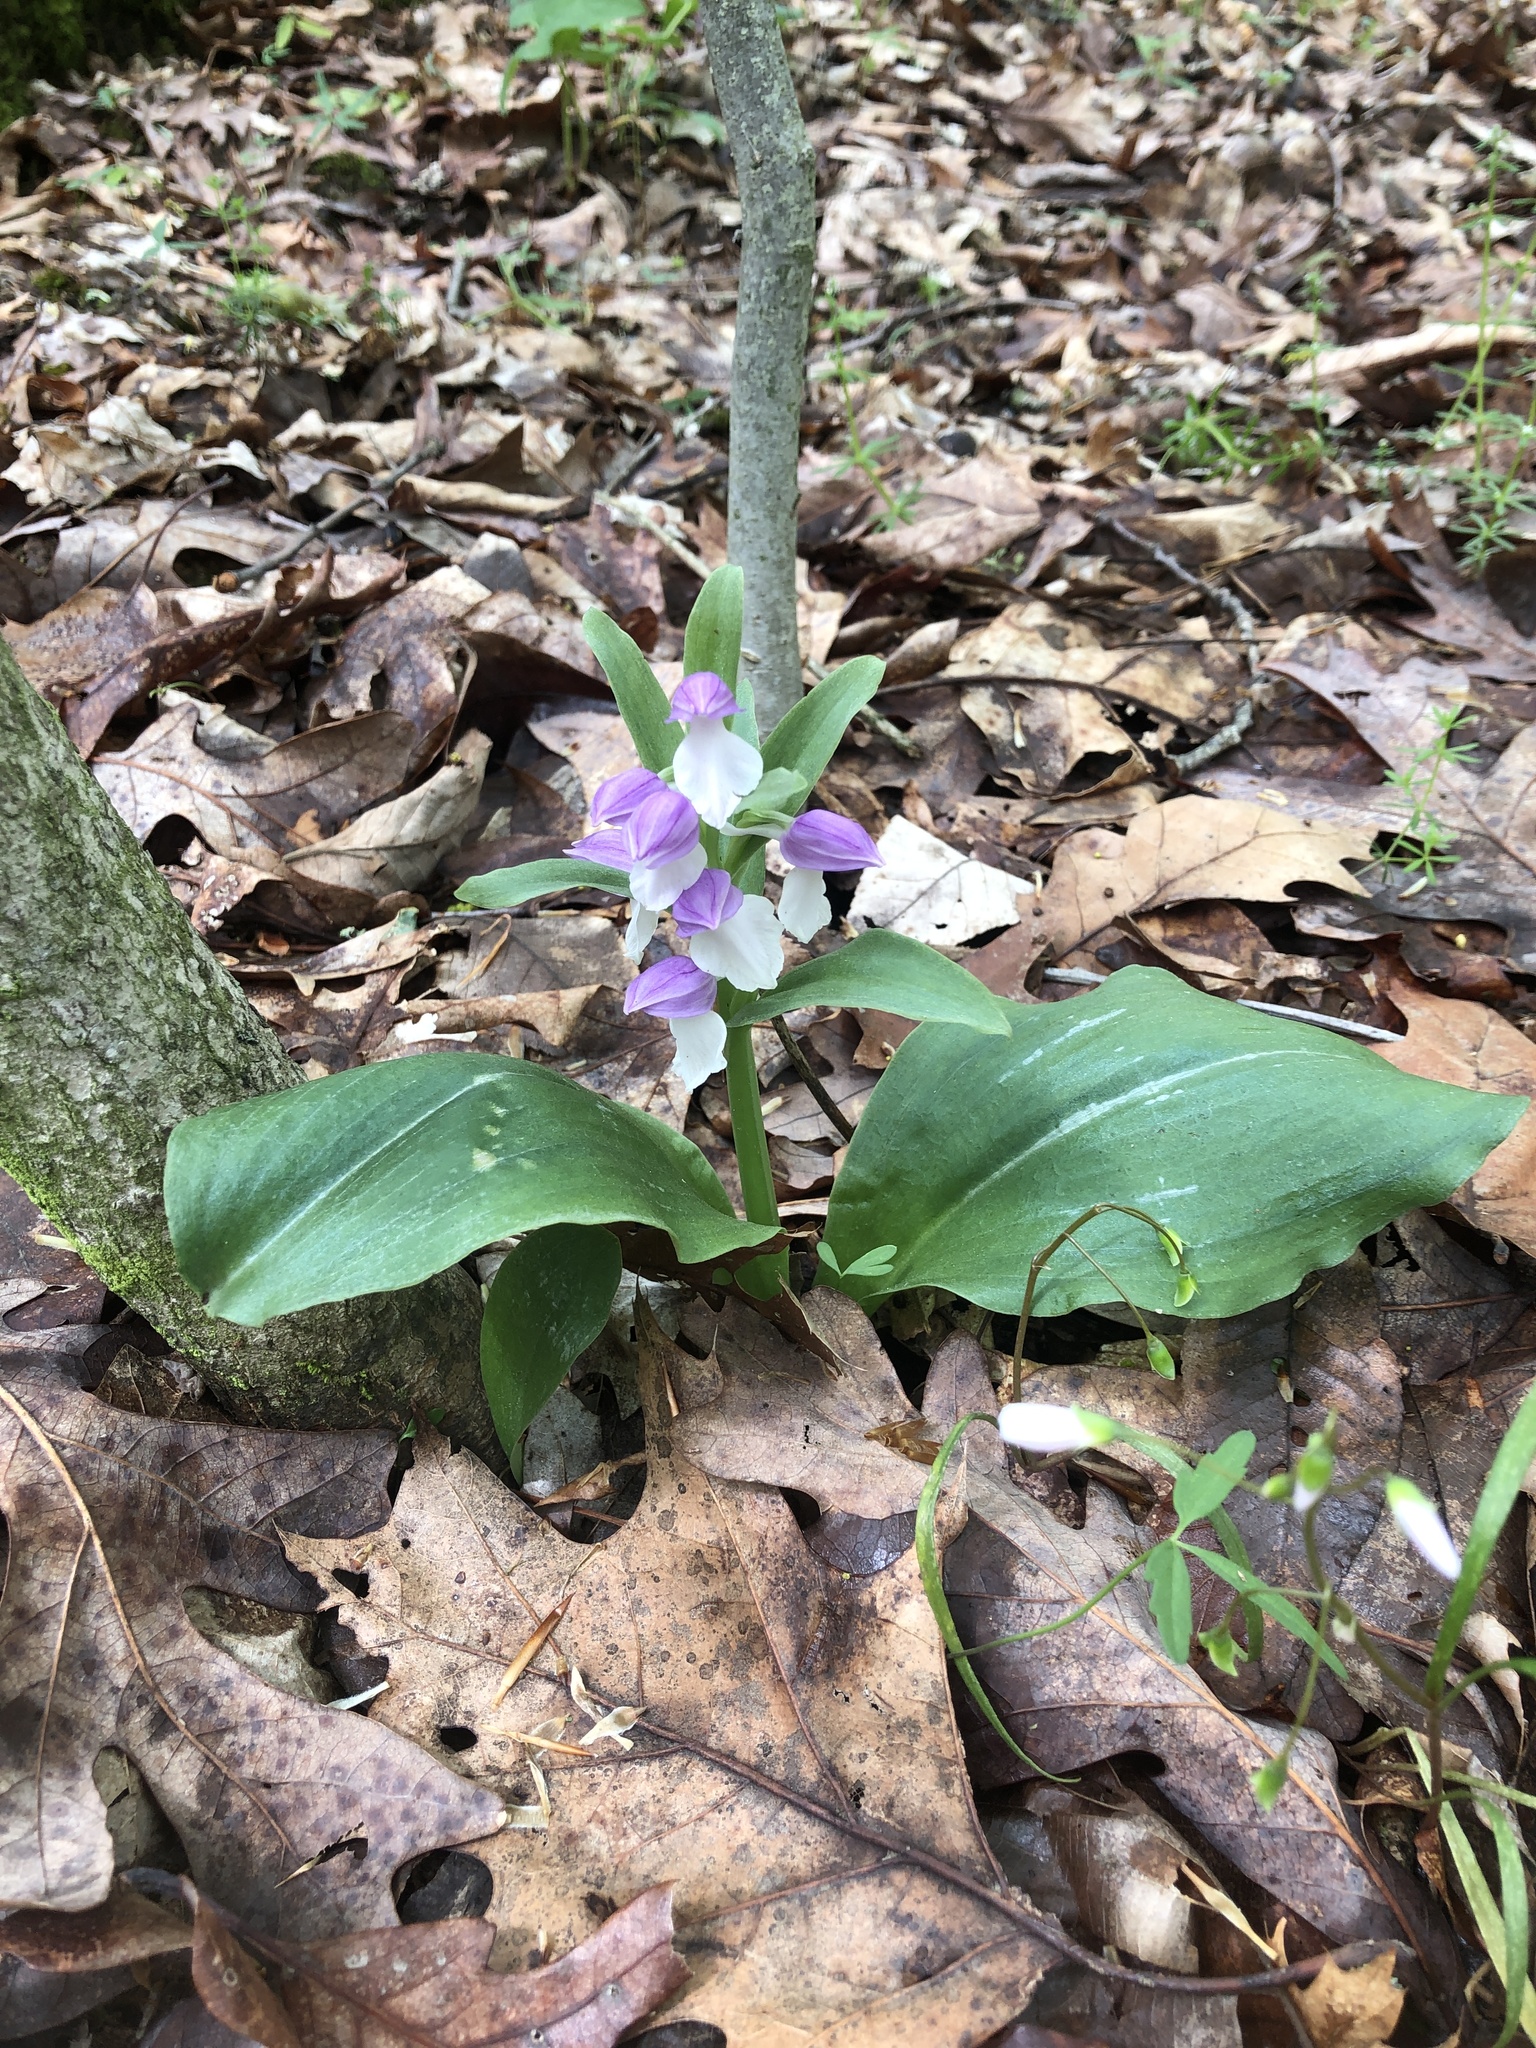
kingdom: Plantae
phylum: Tracheophyta
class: Liliopsida
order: Asparagales
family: Orchidaceae
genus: Galearis
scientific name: Galearis spectabilis
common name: Purple-hooded orchis
